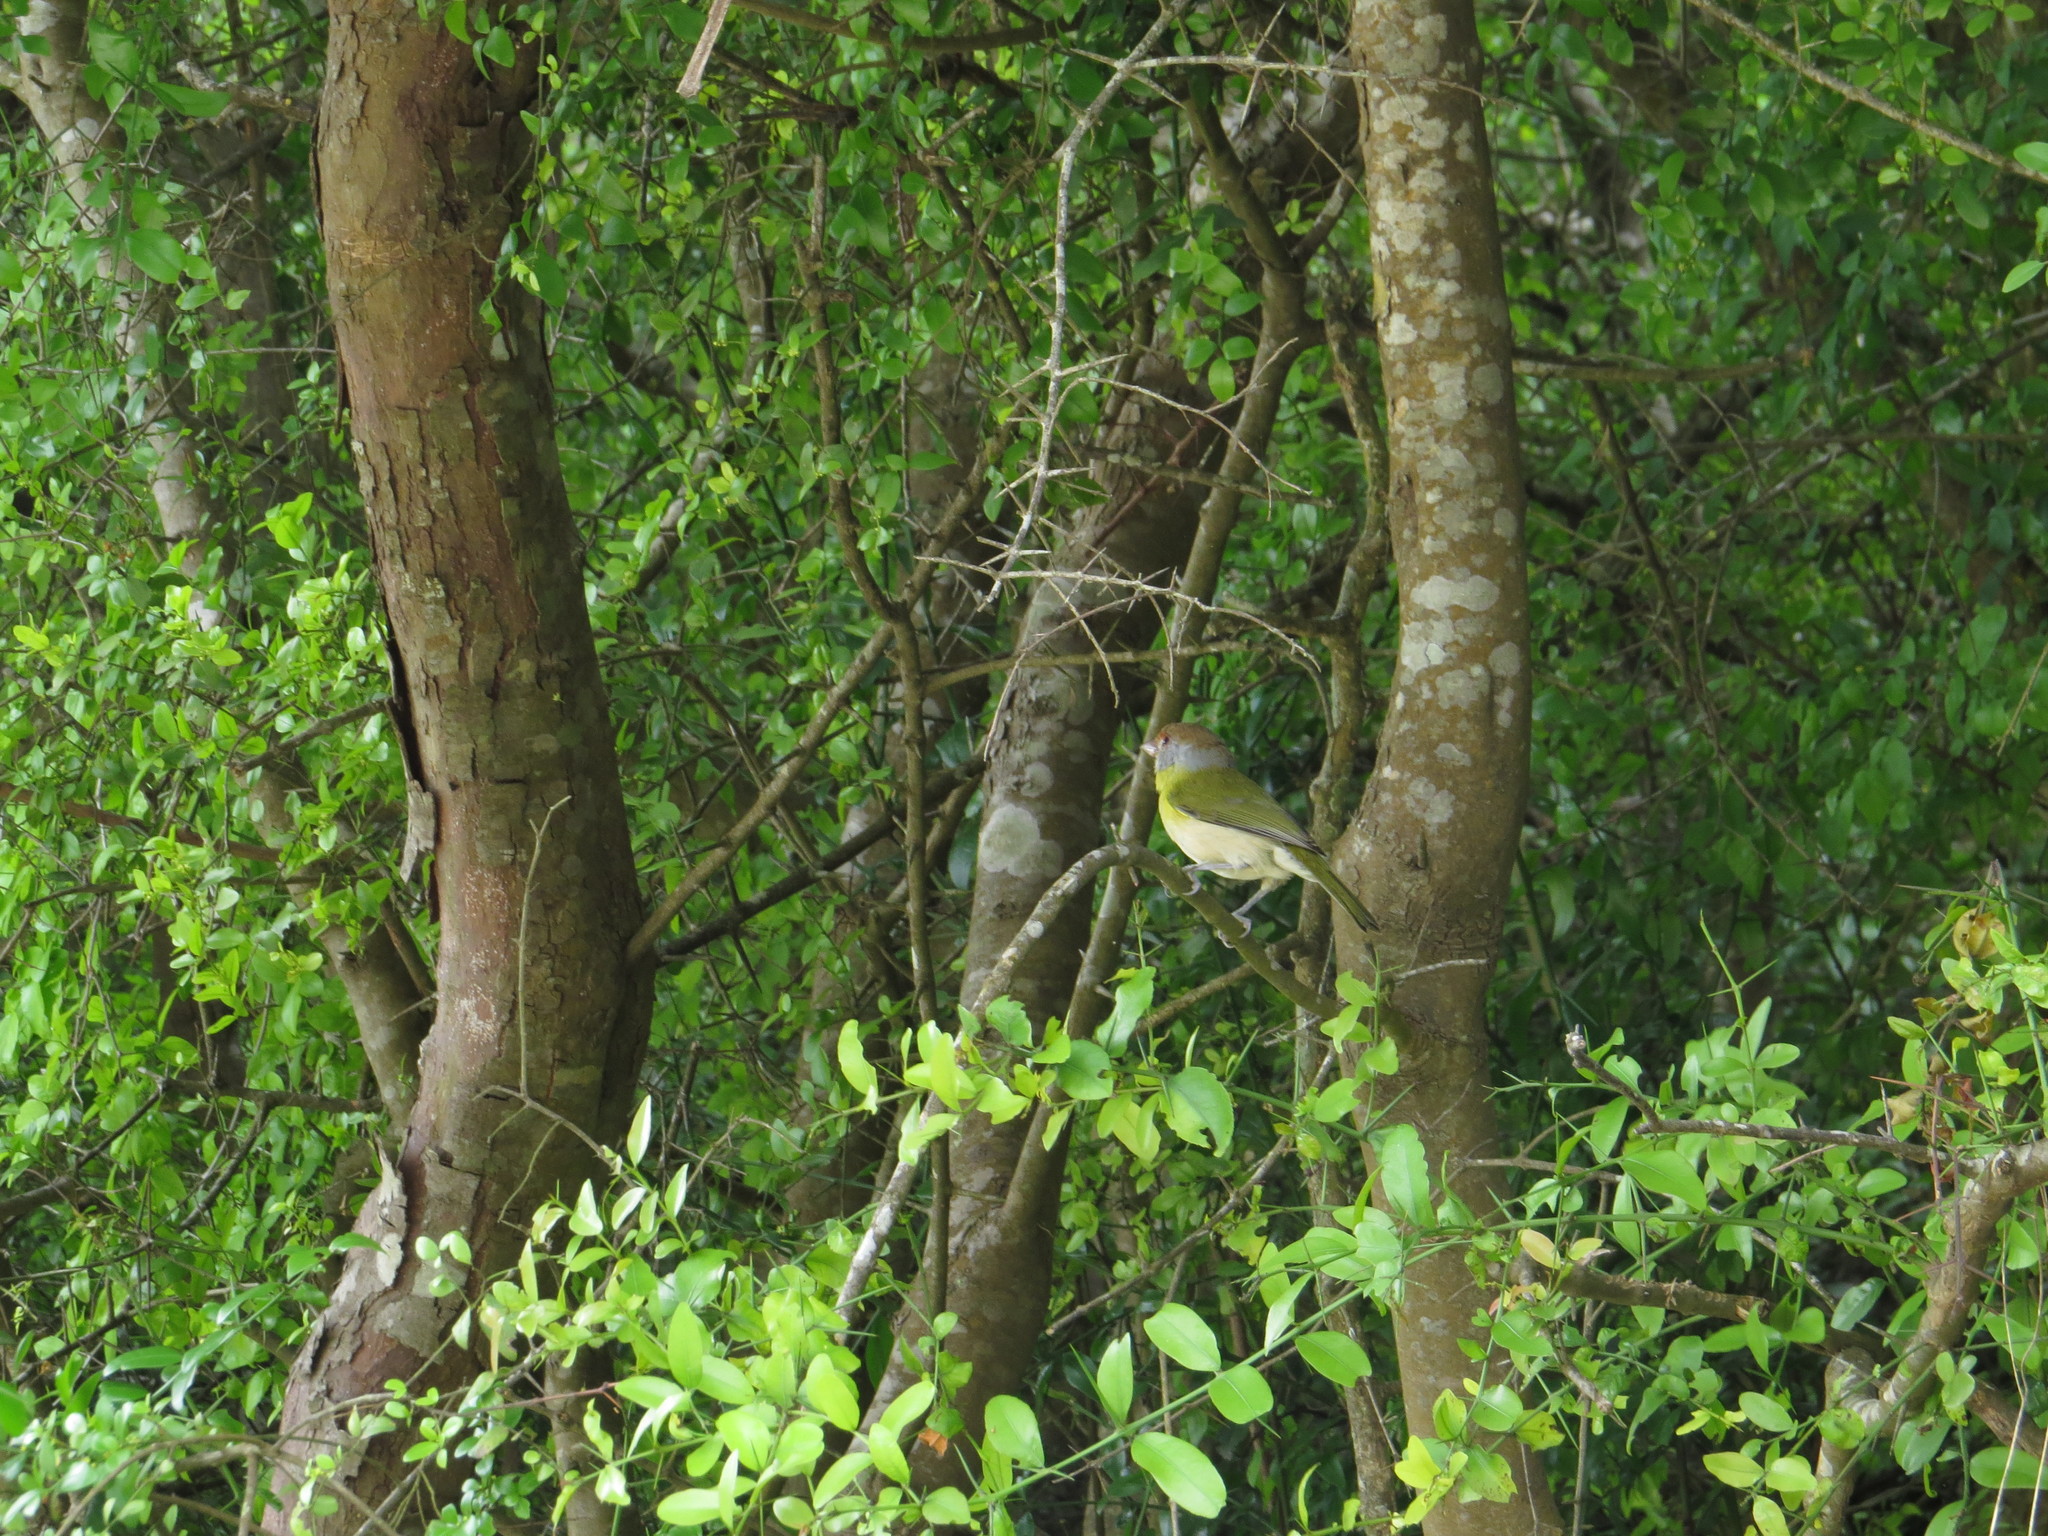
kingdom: Animalia
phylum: Chordata
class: Aves
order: Passeriformes
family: Vireonidae
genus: Cyclarhis
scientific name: Cyclarhis gujanensis
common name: Rufous-browed peppershrike
